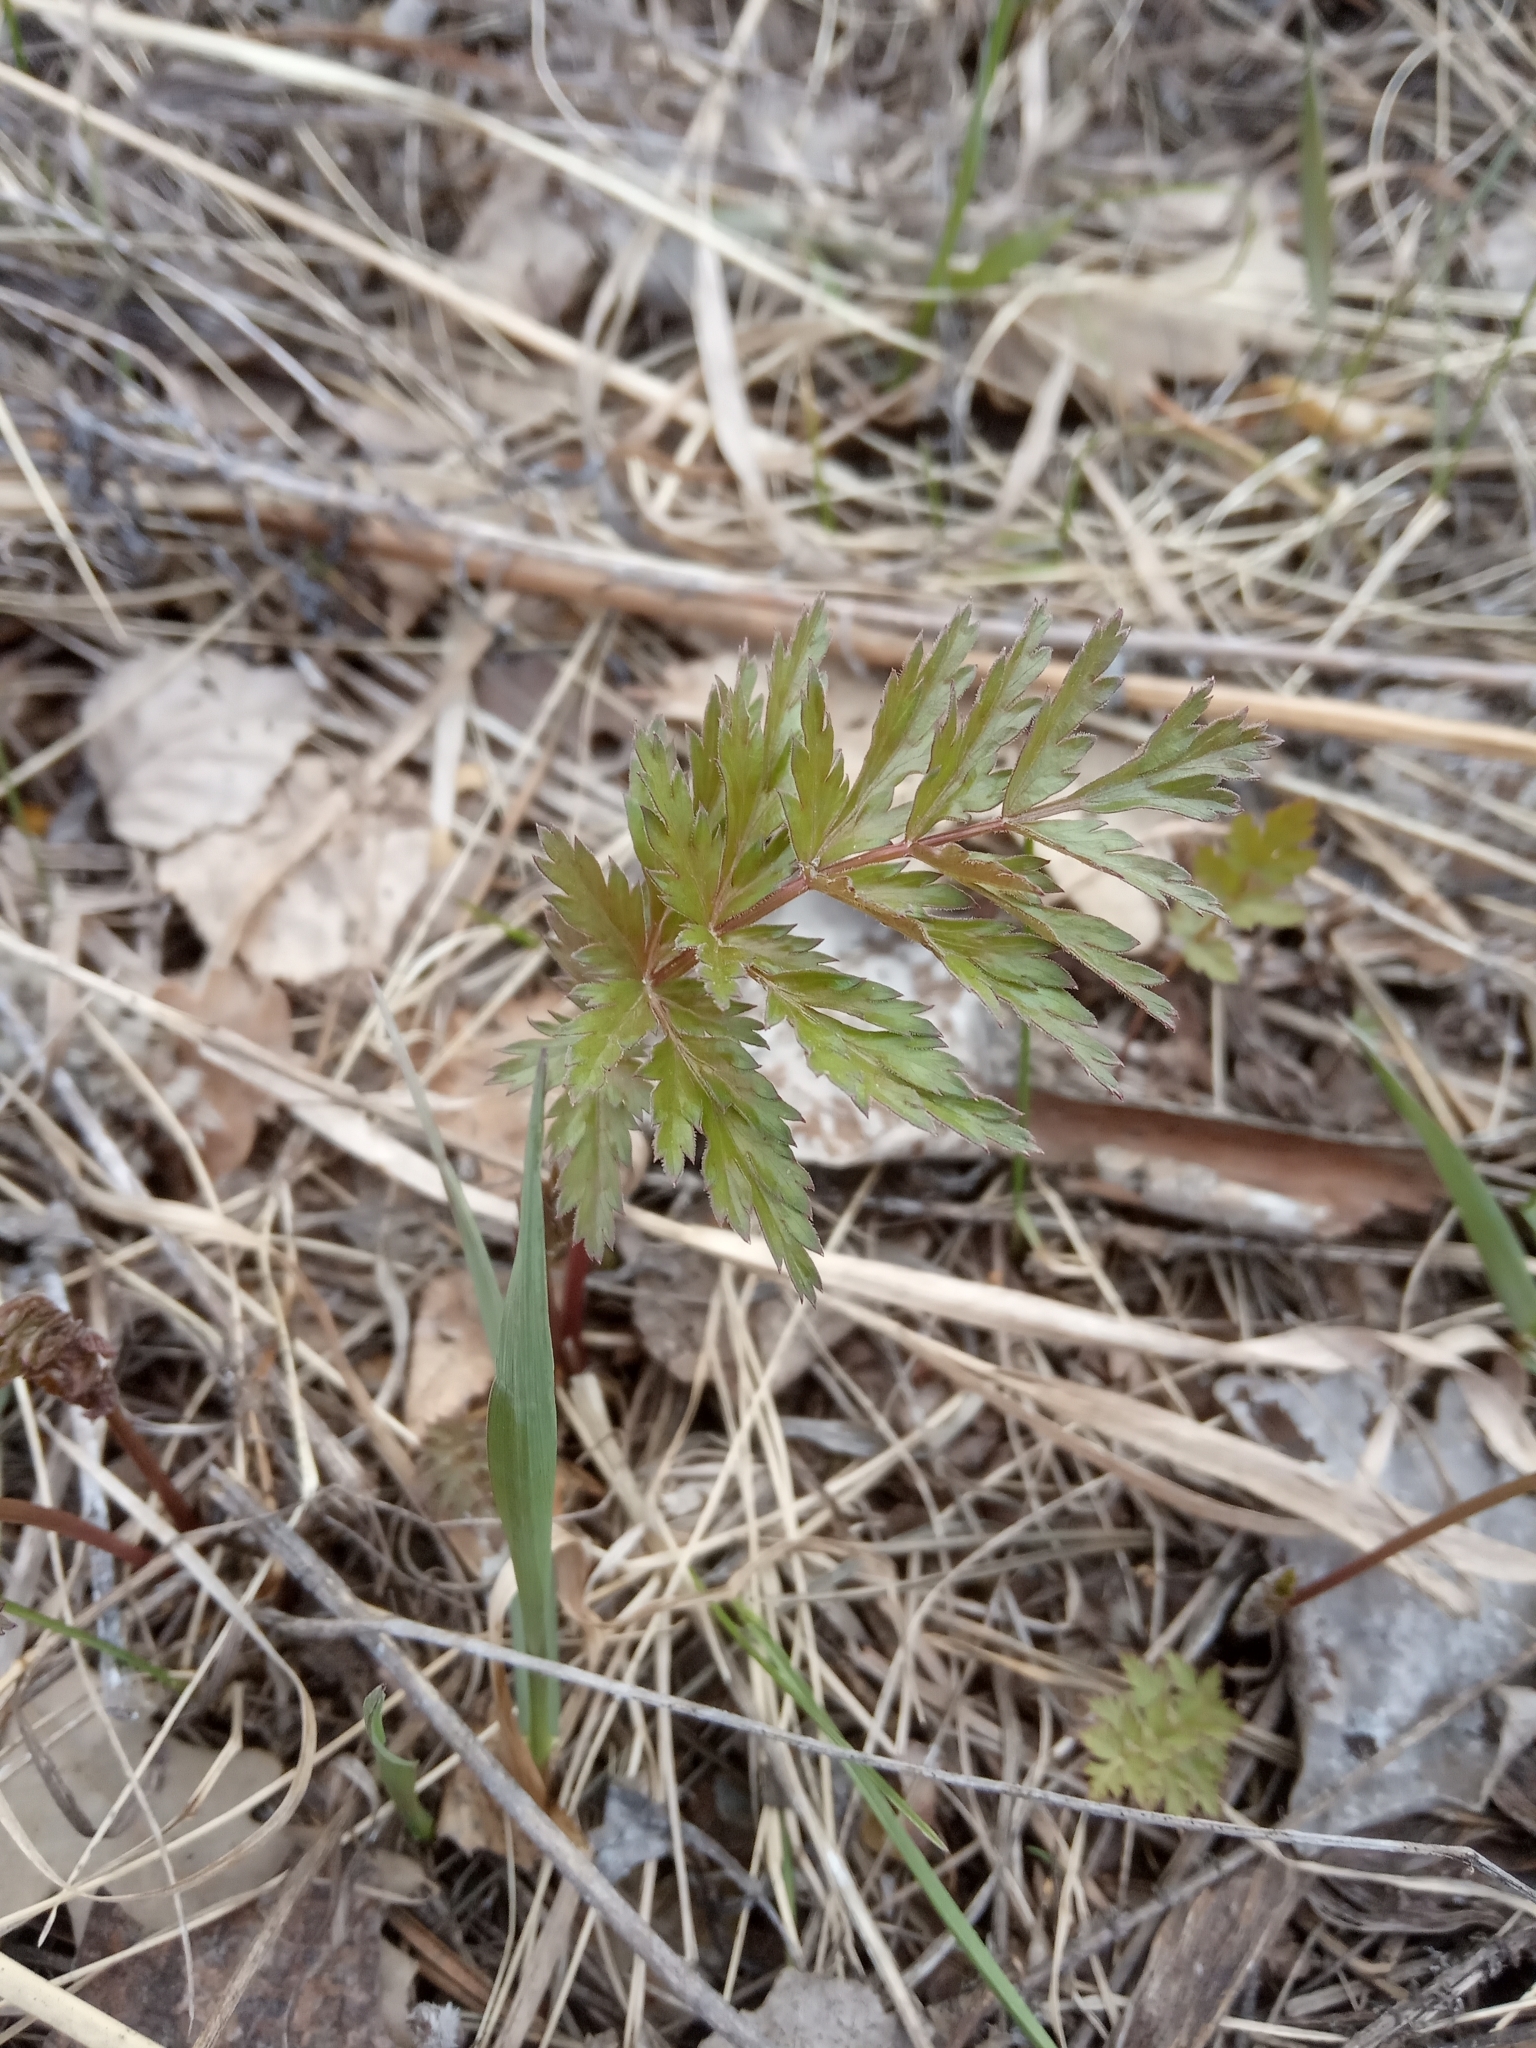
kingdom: Plantae
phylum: Tracheophyta
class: Magnoliopsida
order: Apiales
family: Apiaceae
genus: Seseli
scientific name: Seseli libanotis
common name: Mooncarrot
